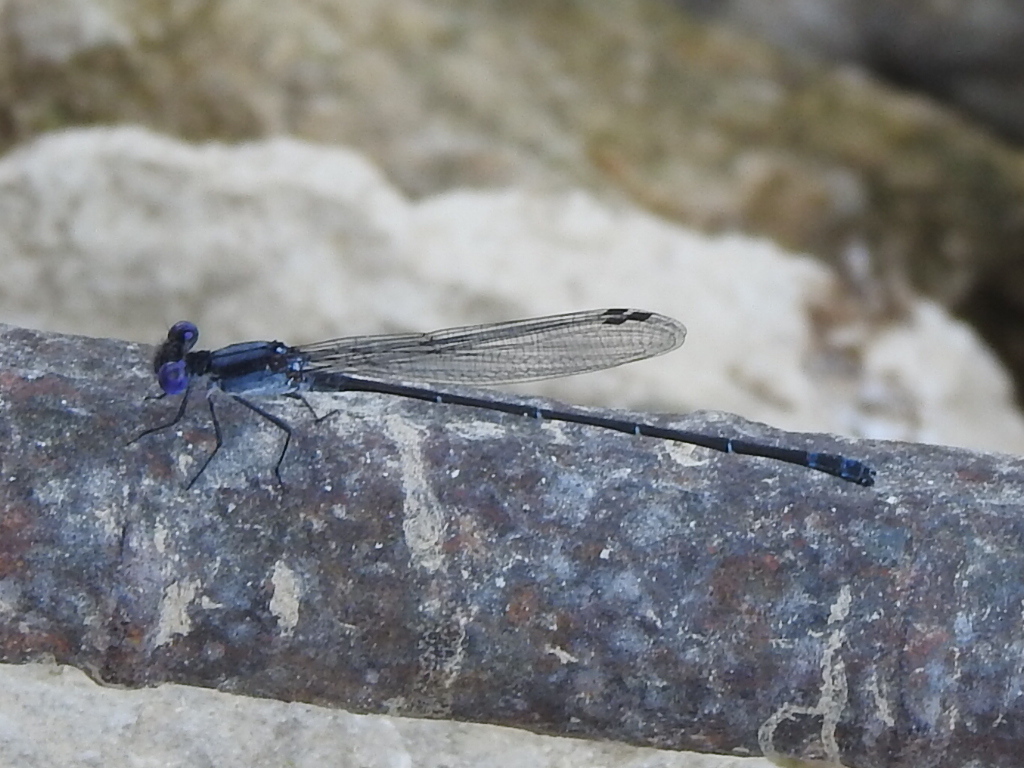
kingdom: Animalia
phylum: Arthropoda
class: Insecta
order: Odonata
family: Coenagrionidae
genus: Argia
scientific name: Argia translata
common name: Dusky dancer
